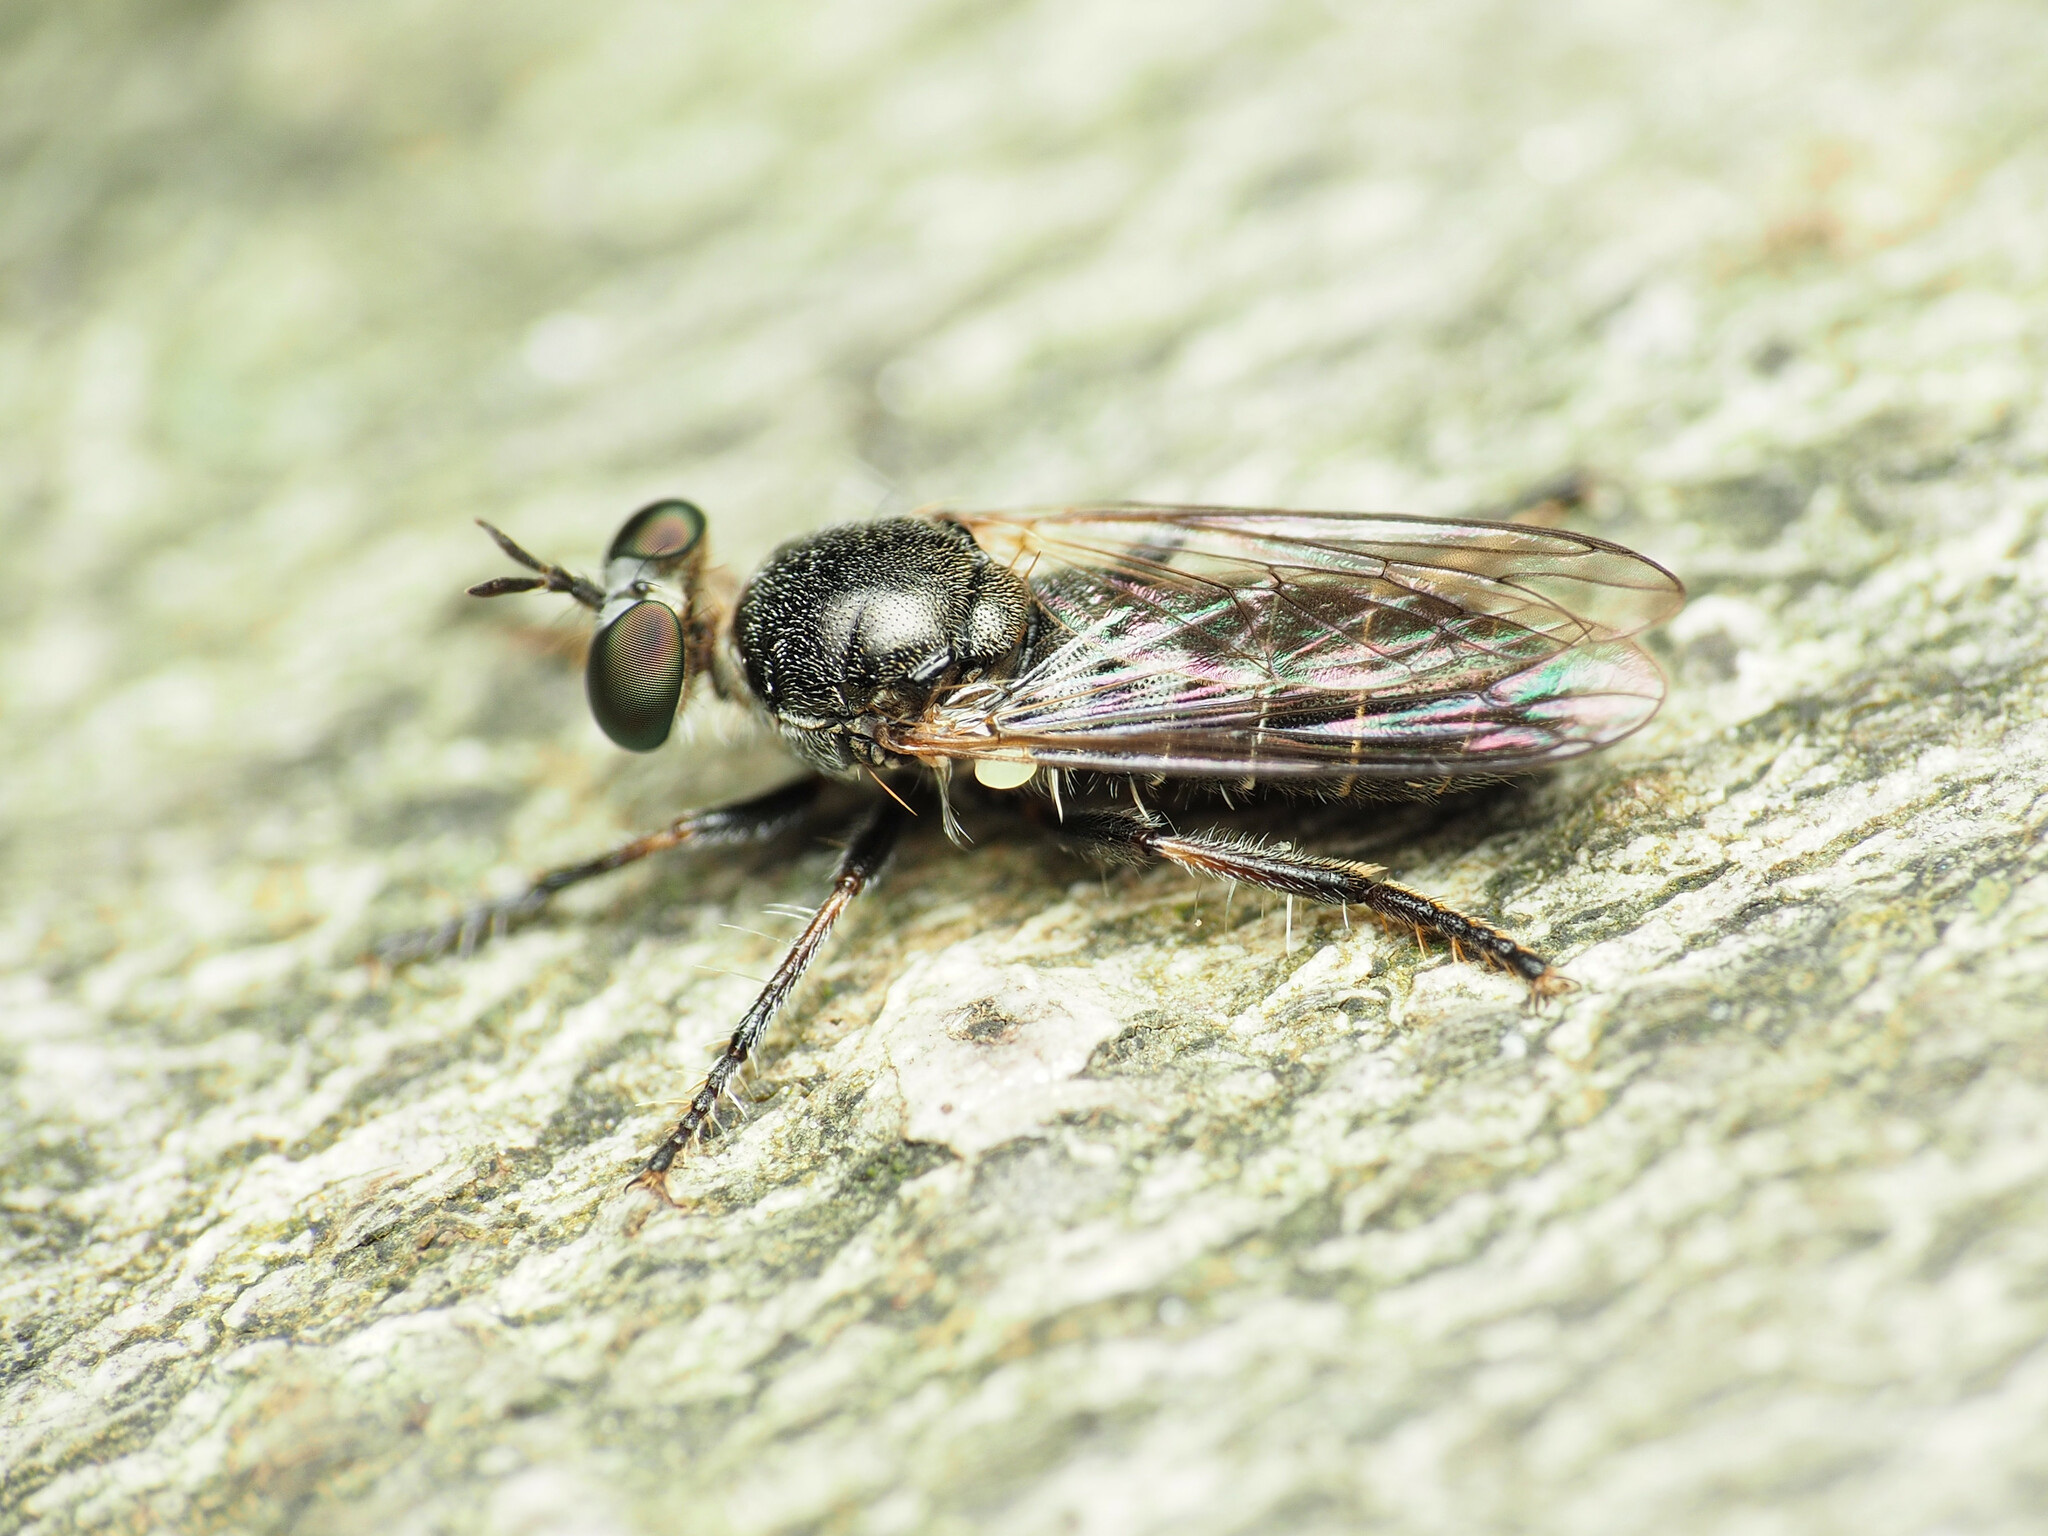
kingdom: Animalia
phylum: Arthropoda
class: Insecta
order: Diptera
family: Asilidae
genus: Atomosia
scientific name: Atomosia puella
